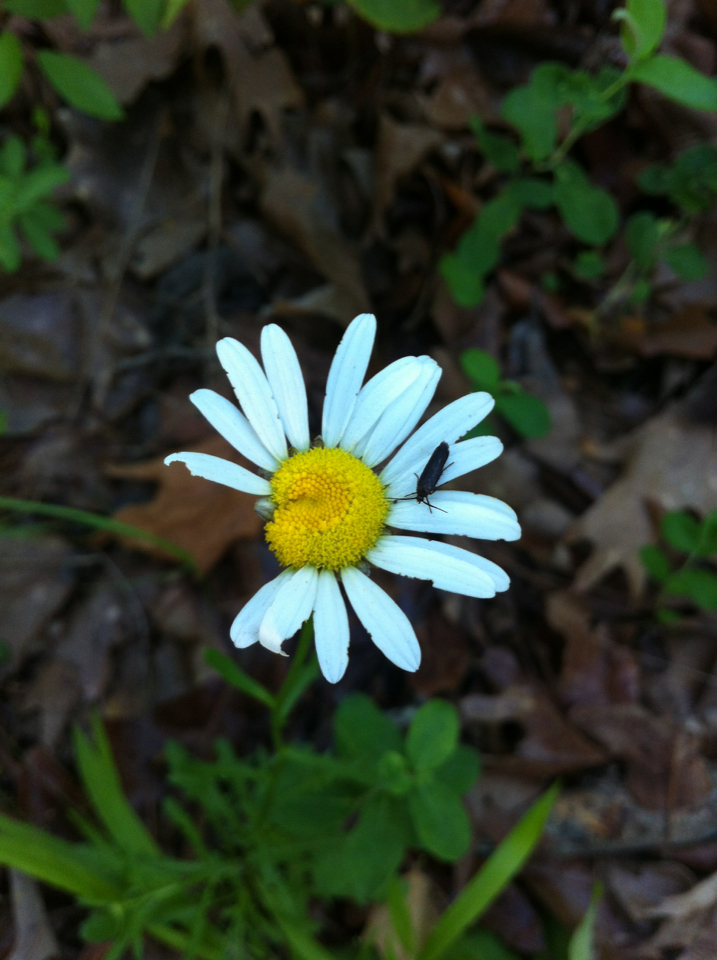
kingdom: Plantae
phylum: Tracheophyta
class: Magnoliopsida
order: Asterales
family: Asteraceae
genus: Leucanthemum
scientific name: Leucanthemum vulgare
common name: Oxeye daisy
